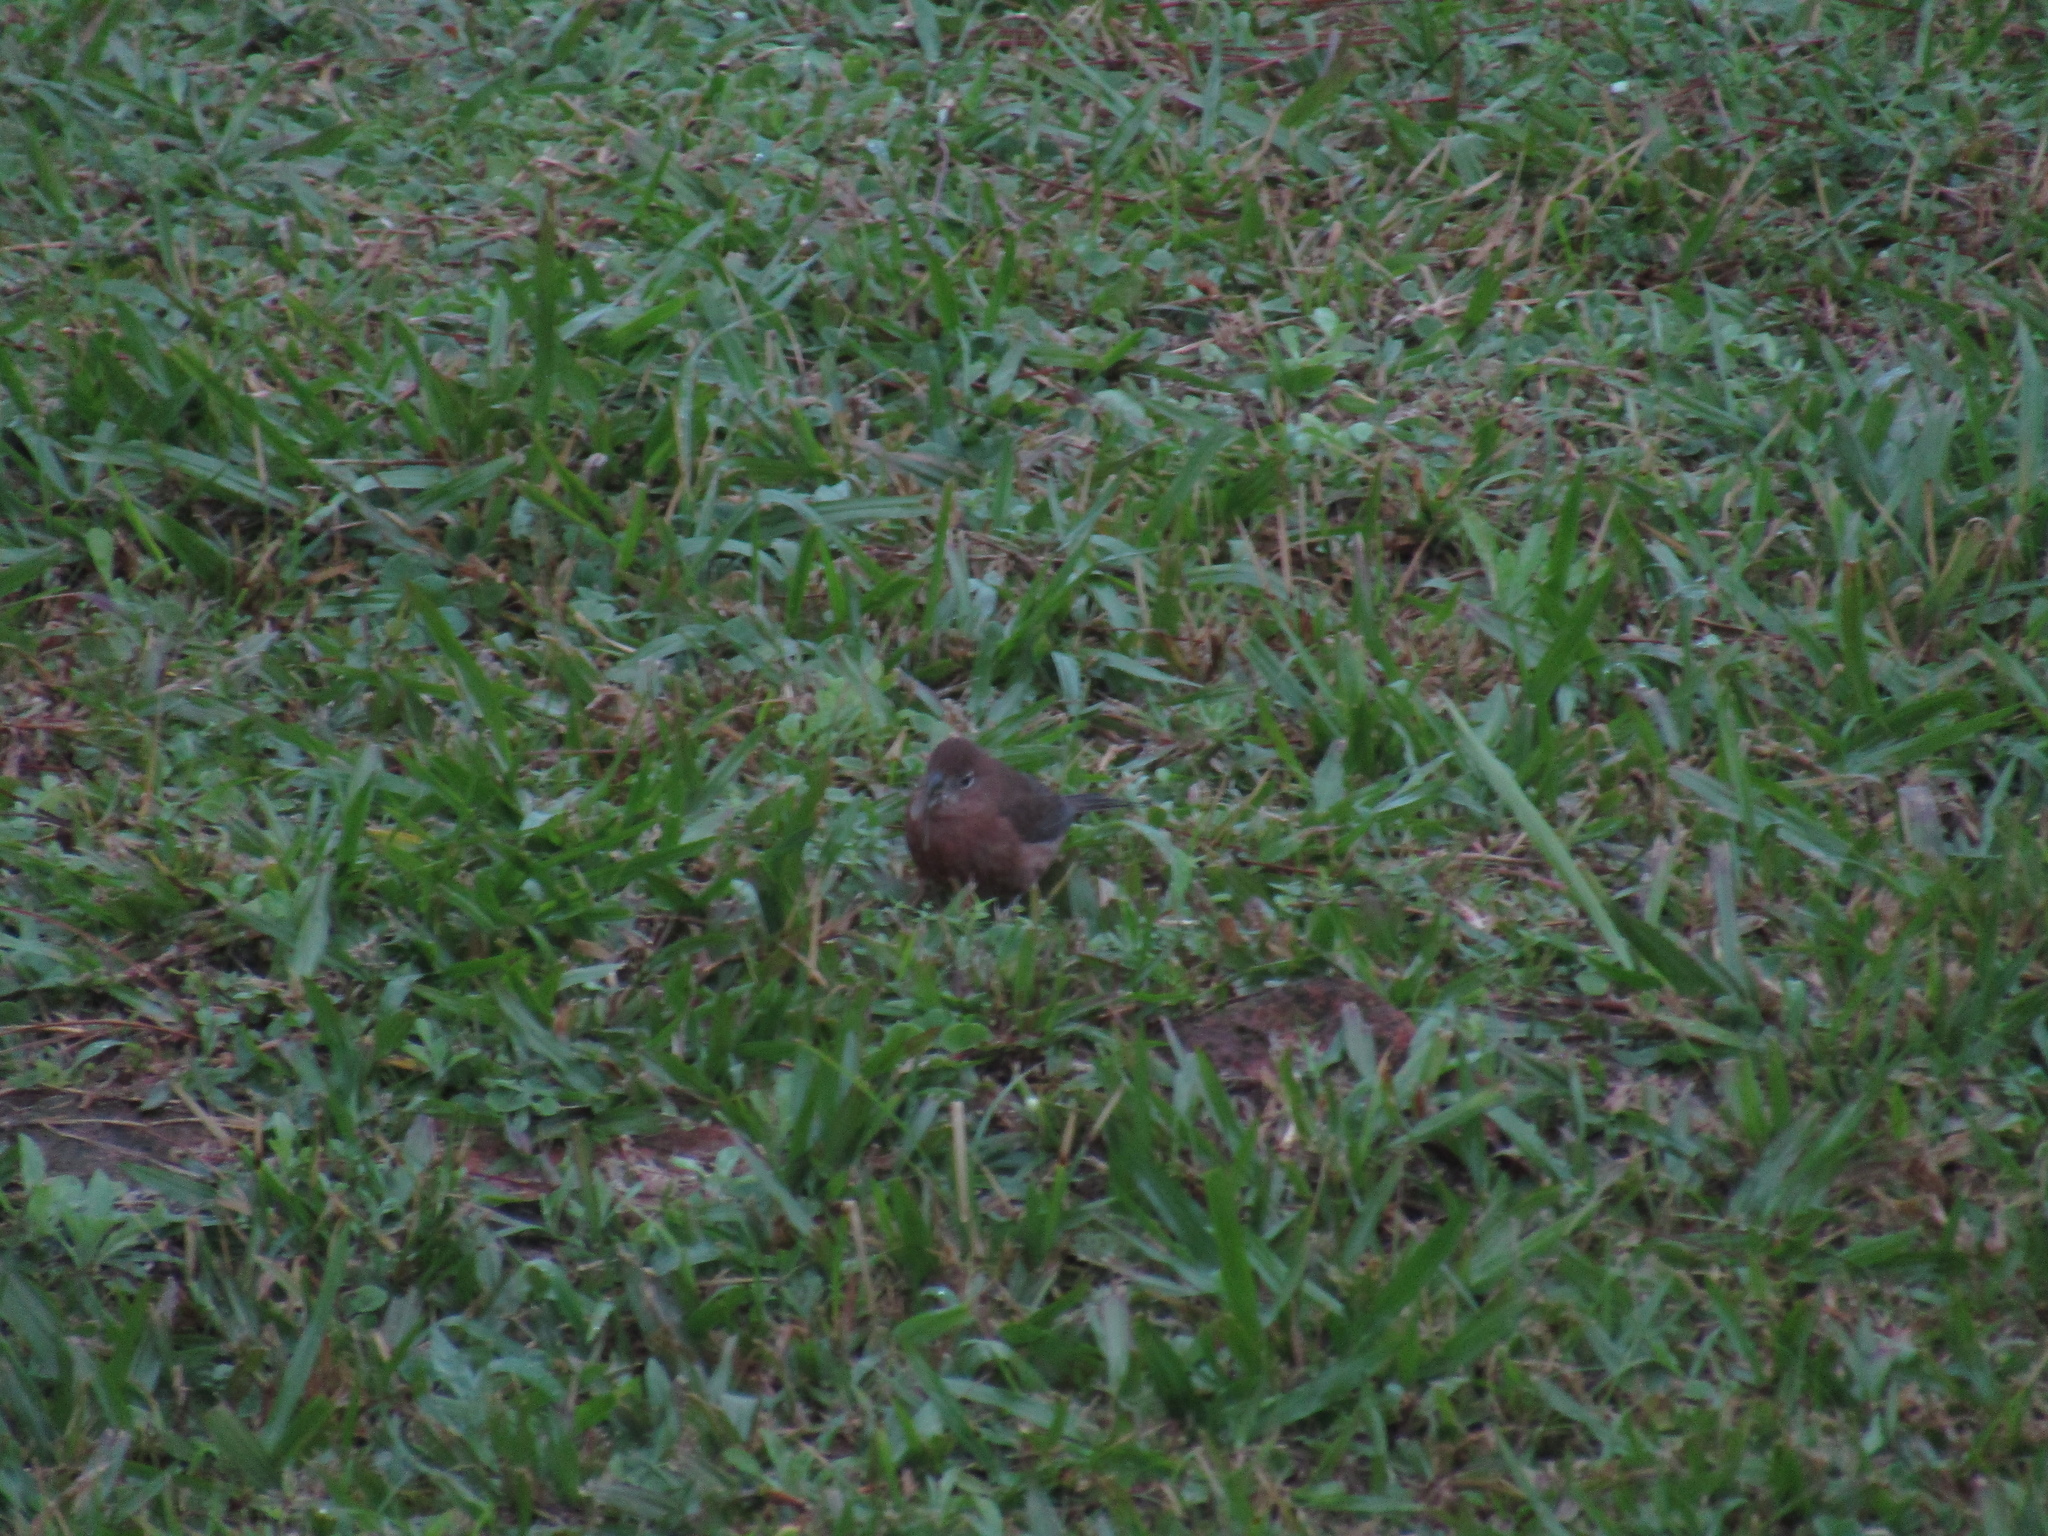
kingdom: Animalia
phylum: Chordata
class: Aves
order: Passeriformes
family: Thraupidae
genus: Coryphospingus
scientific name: Coryphospingus cucullatus
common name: Red pileated finch
